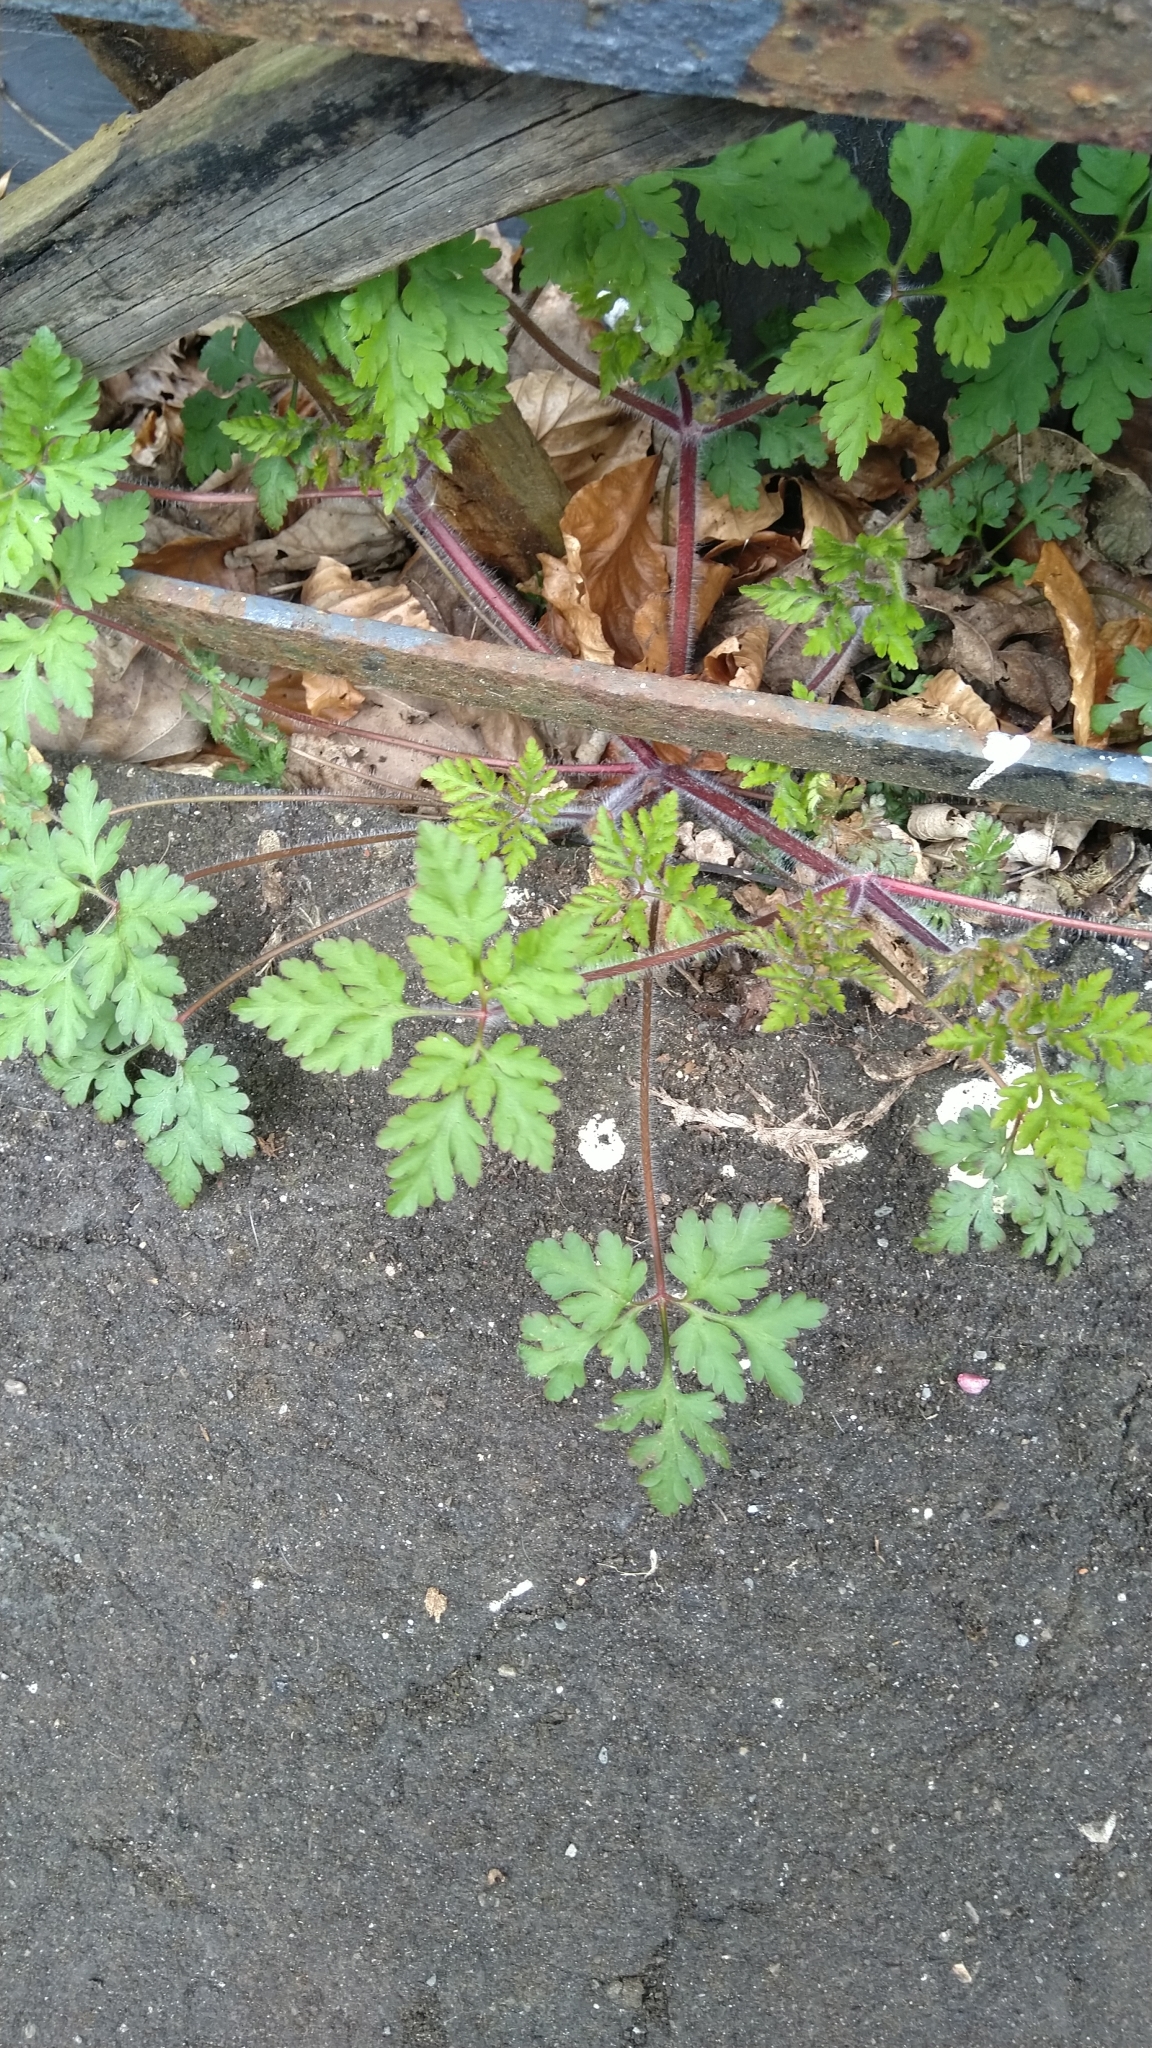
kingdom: Plantae
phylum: Tracheophyta
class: Magnoliopsida
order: Geraniales
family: Geraniaceae
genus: Geranium
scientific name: Geranium robertianum
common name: Herb-robert
